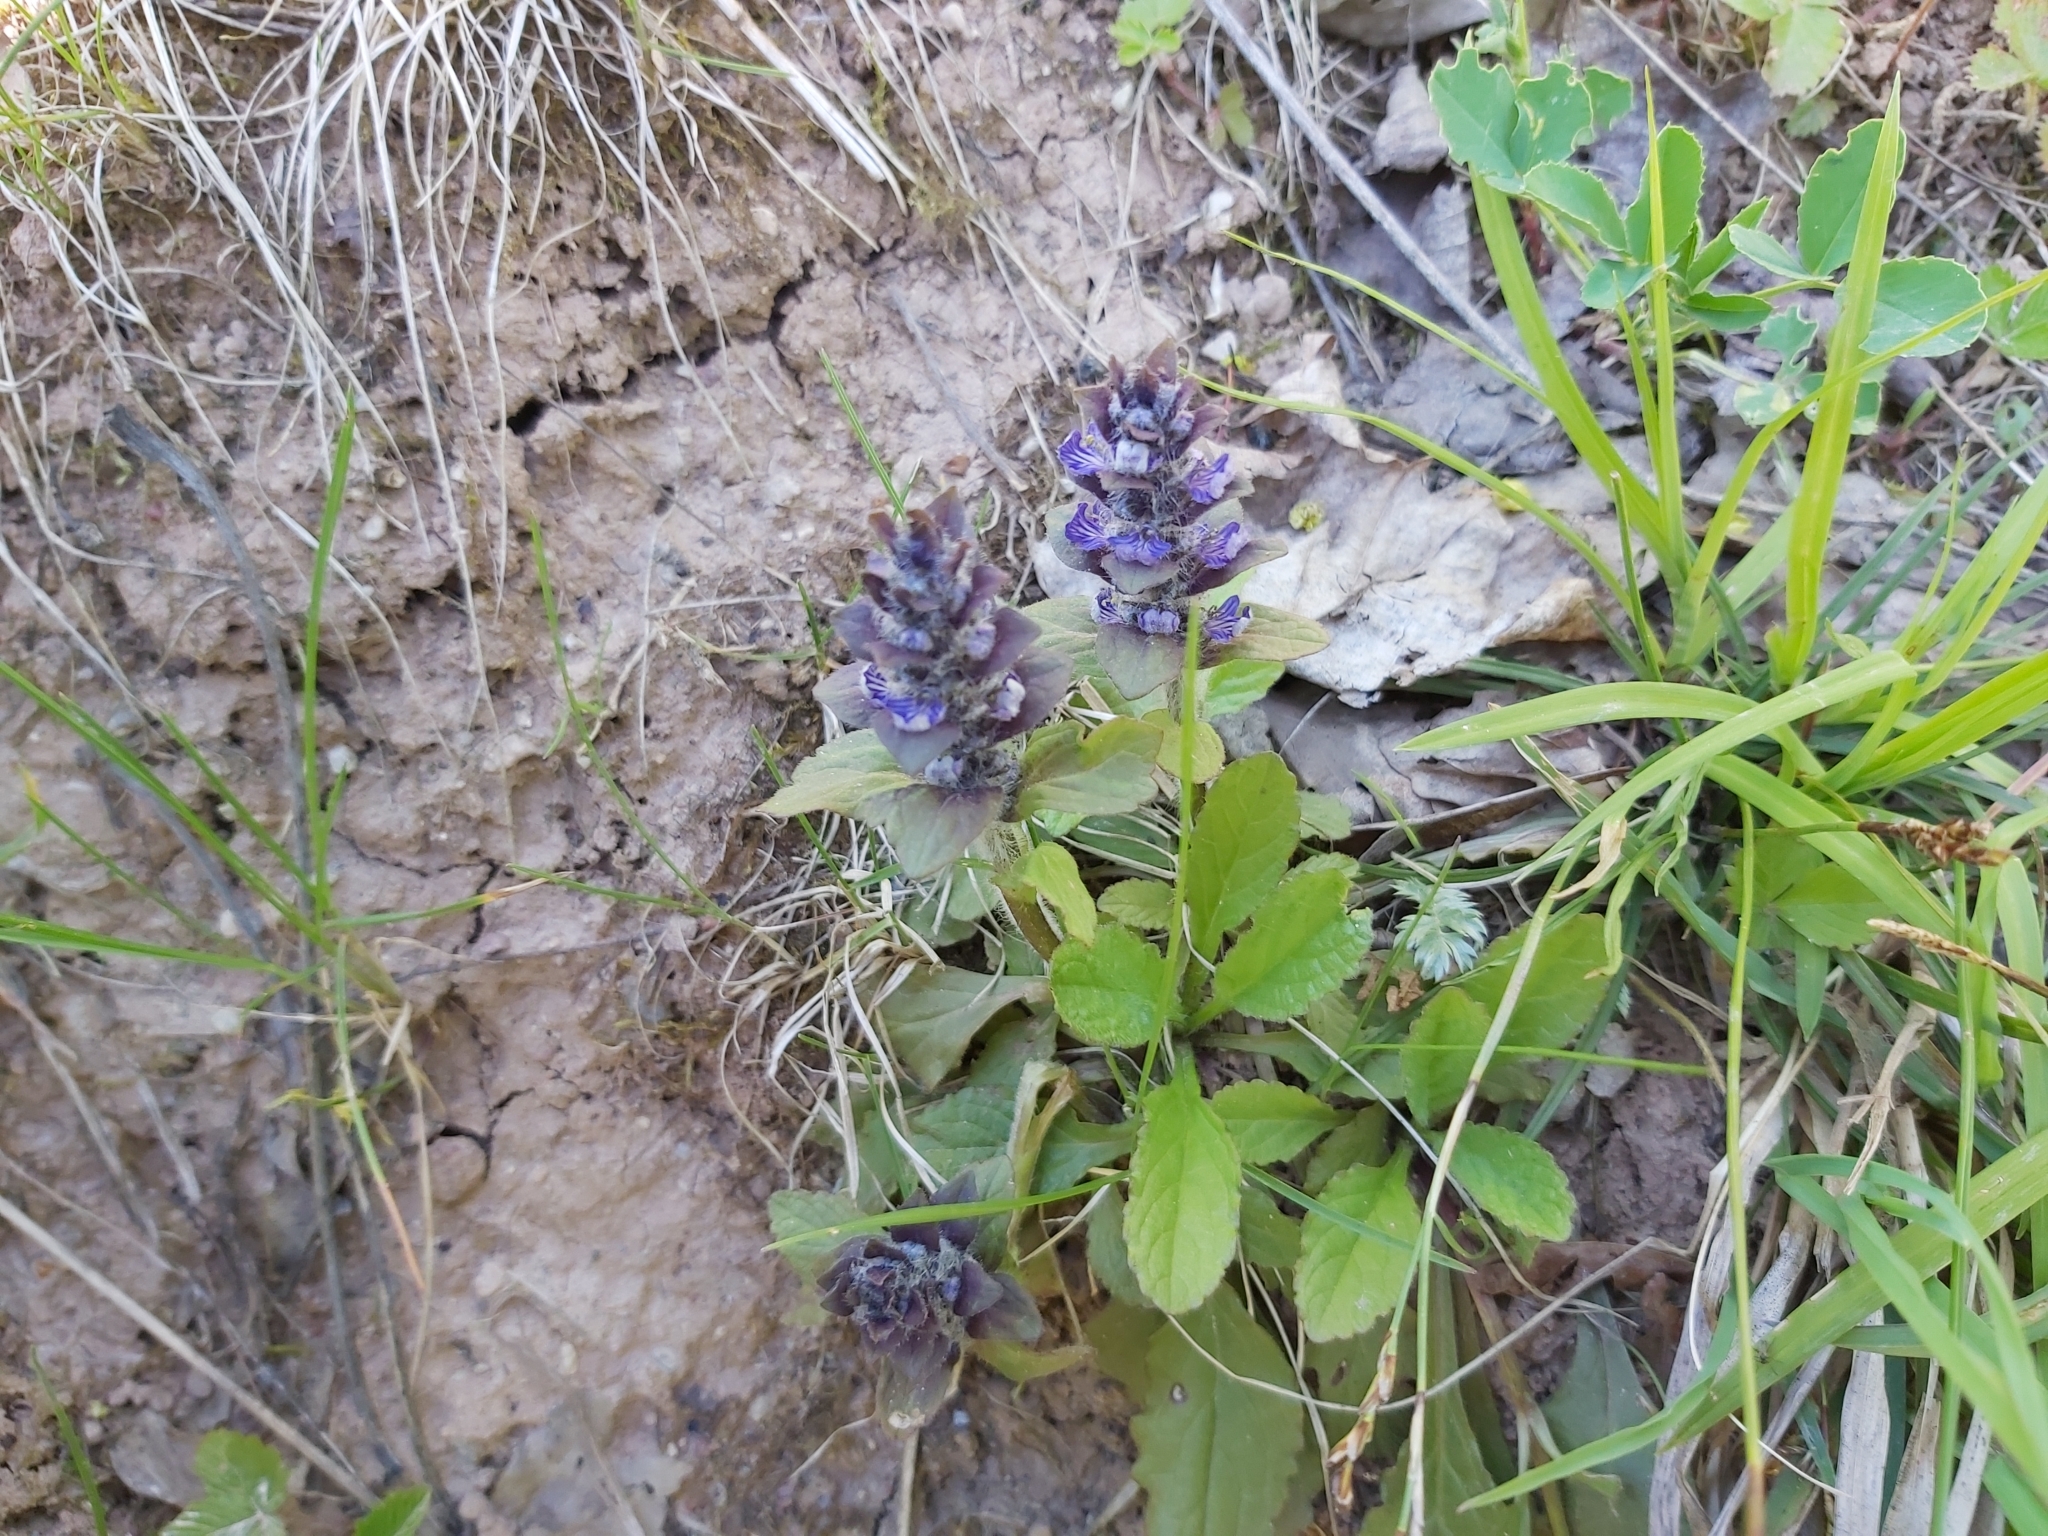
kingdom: Plantae
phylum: Tracheophyta
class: Magnoliopsida
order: Lamiales
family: Lamiaceae
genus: Ajuga
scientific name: Ajuga genevensis
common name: Blue bugle
